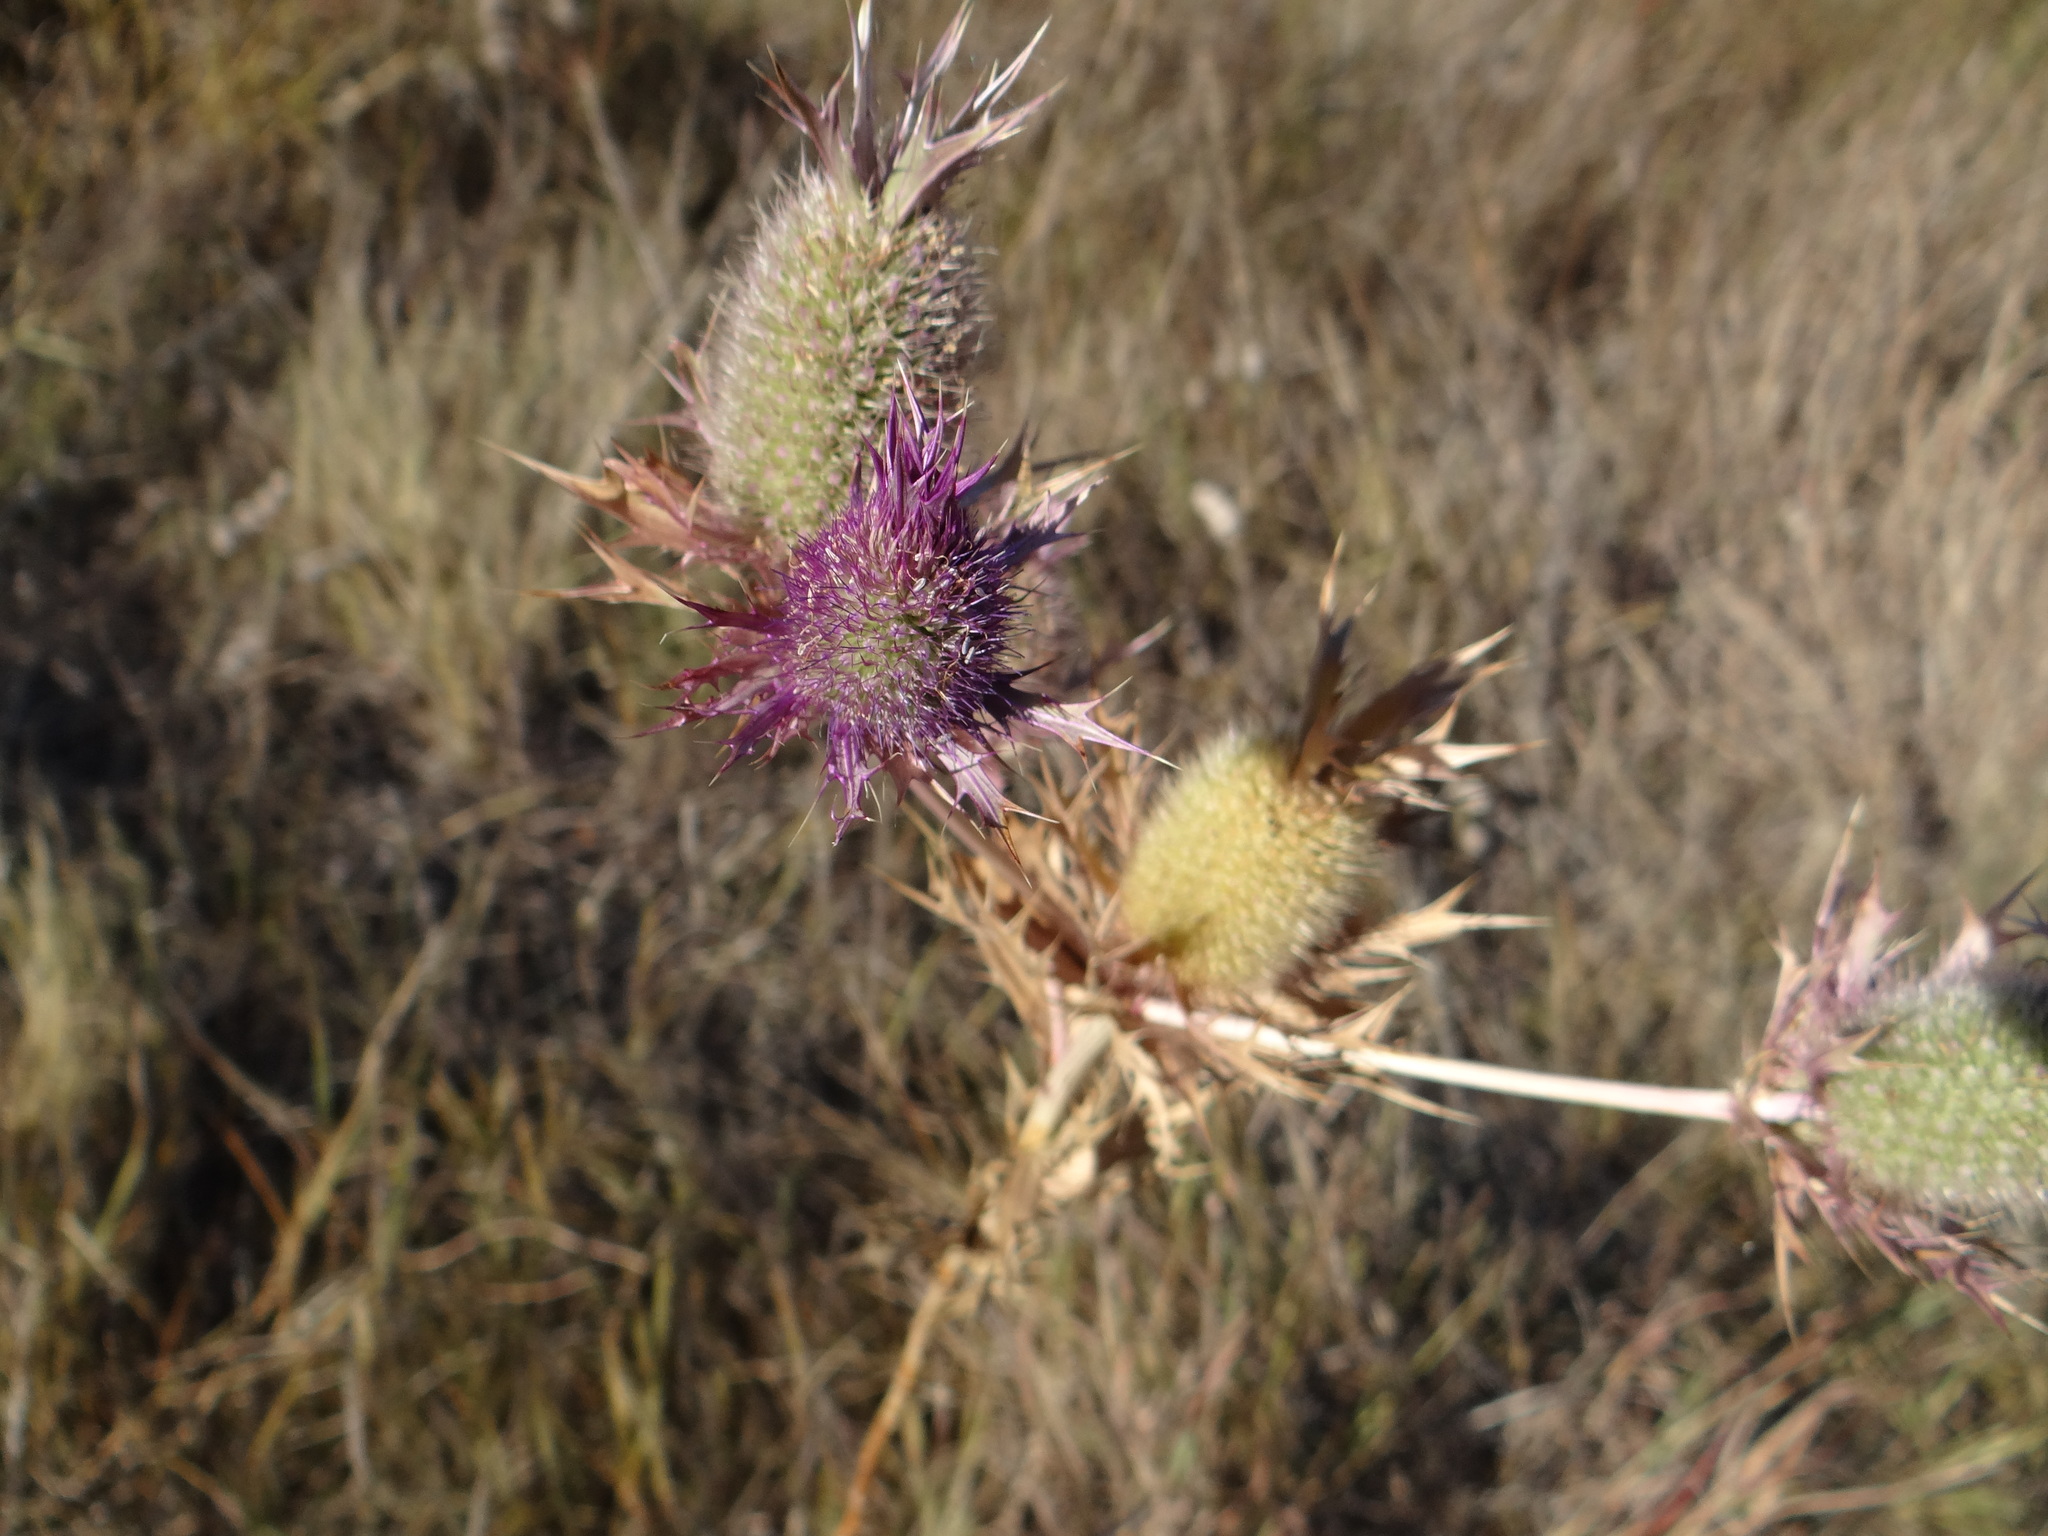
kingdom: Plantae
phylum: Tracheophyta
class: Magnoliopsida
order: Apiales
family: Apiaceae
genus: Eryngium
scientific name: Eryngium leavenworthii
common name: Leavenworth's eryngo
